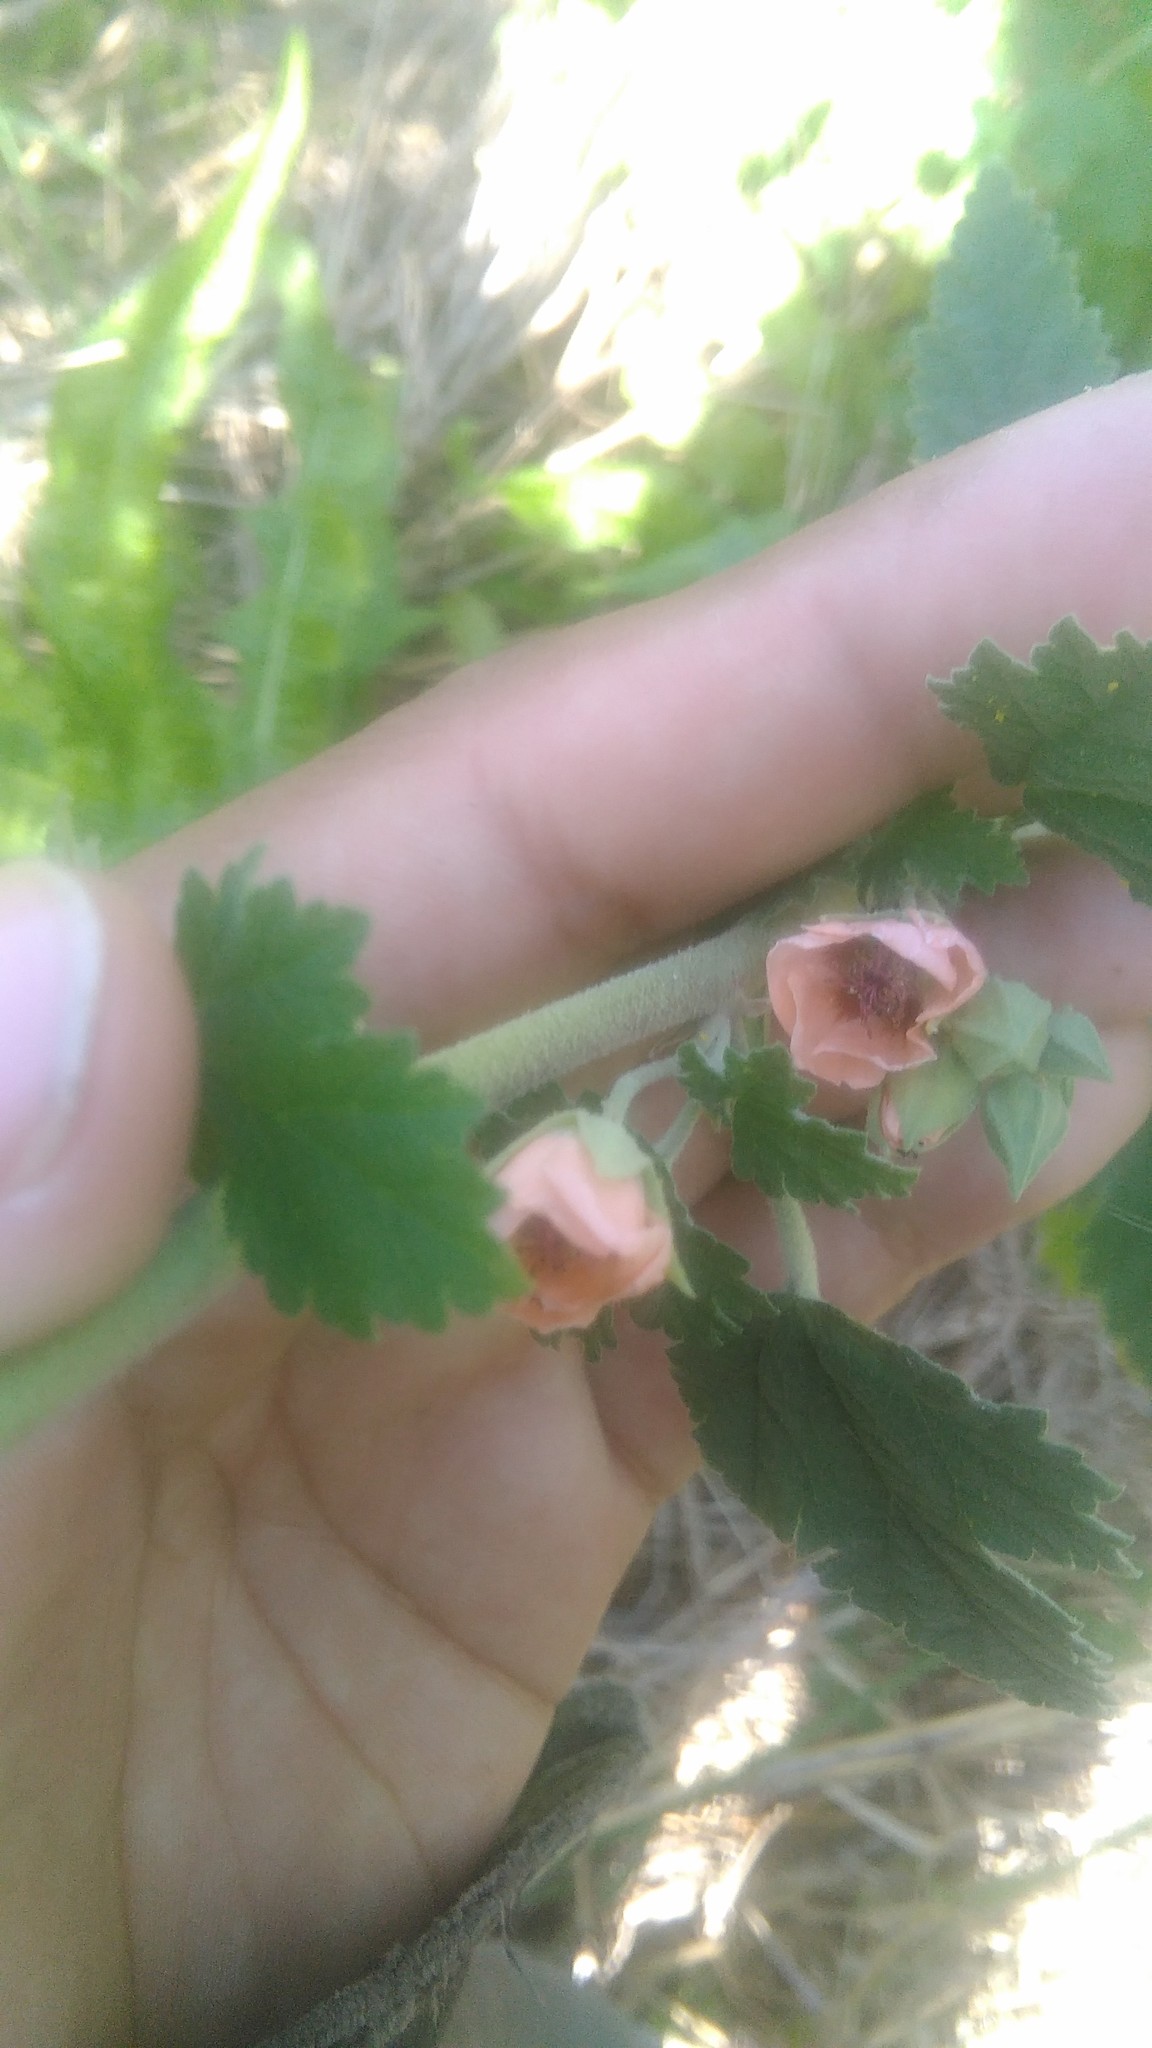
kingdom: Plantae
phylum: Tracheophyta
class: Magnoliopsida
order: Malvales
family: Malvaceae
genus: Sphaeralcea
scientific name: Sphaeralcea bonariensis
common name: Latin globemallow
